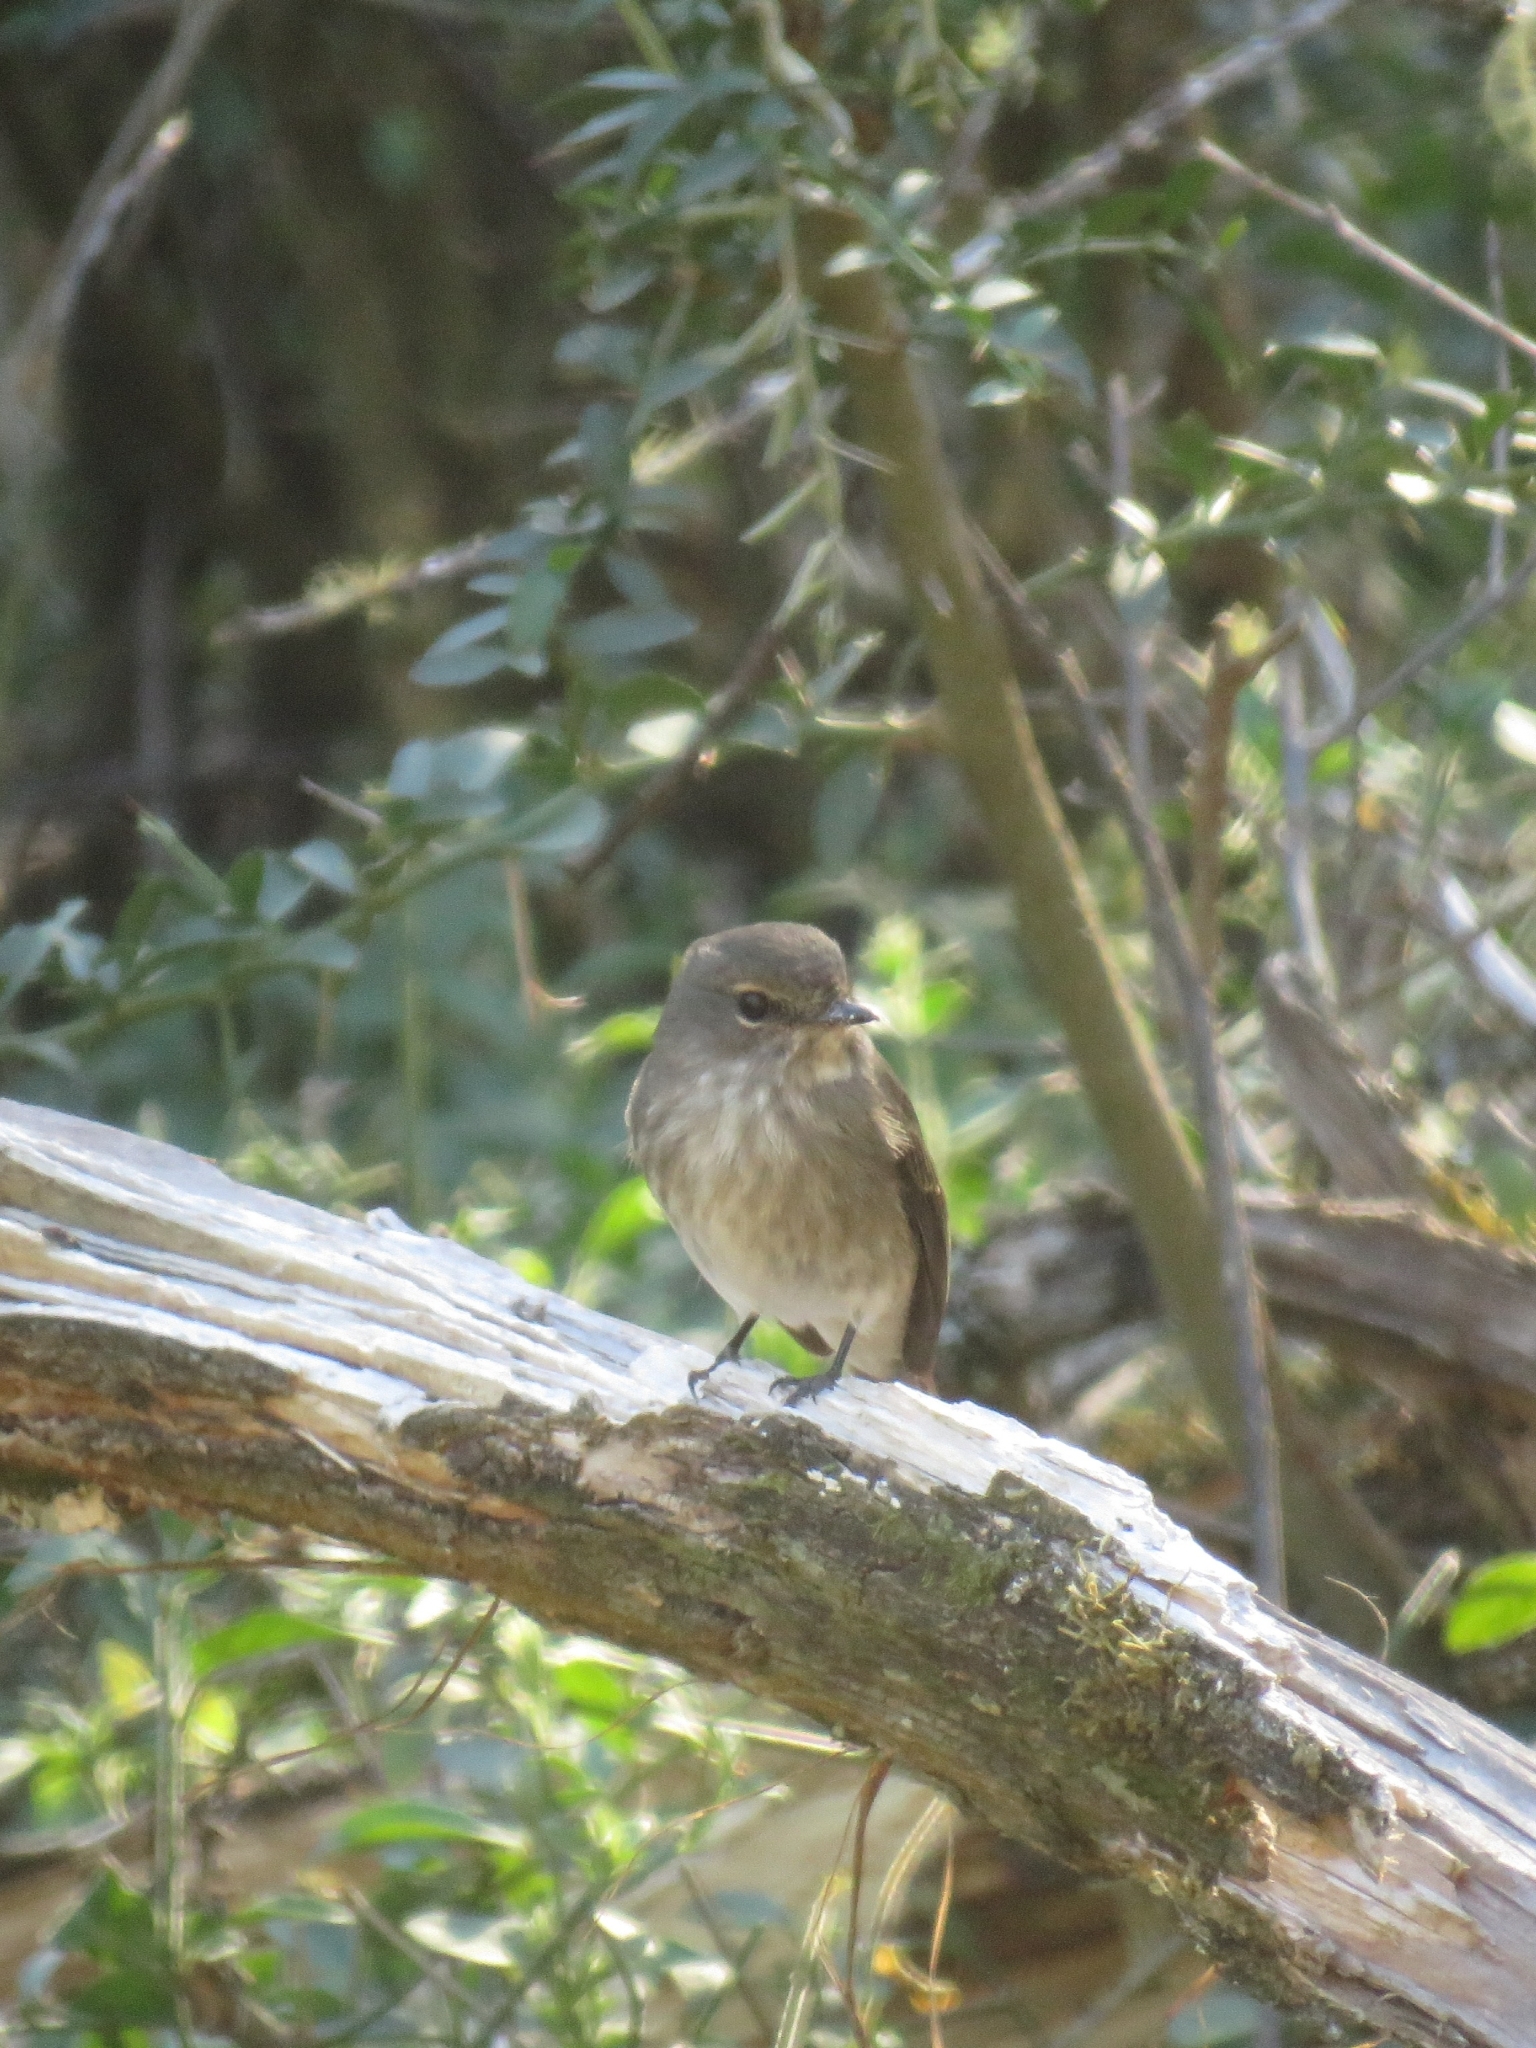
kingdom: Animalia
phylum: Chordata
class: Aves
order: Passeriformes
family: Muscicapidae
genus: Muscicapa
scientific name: Muscicapa adusta
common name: African dusky flycatcher
